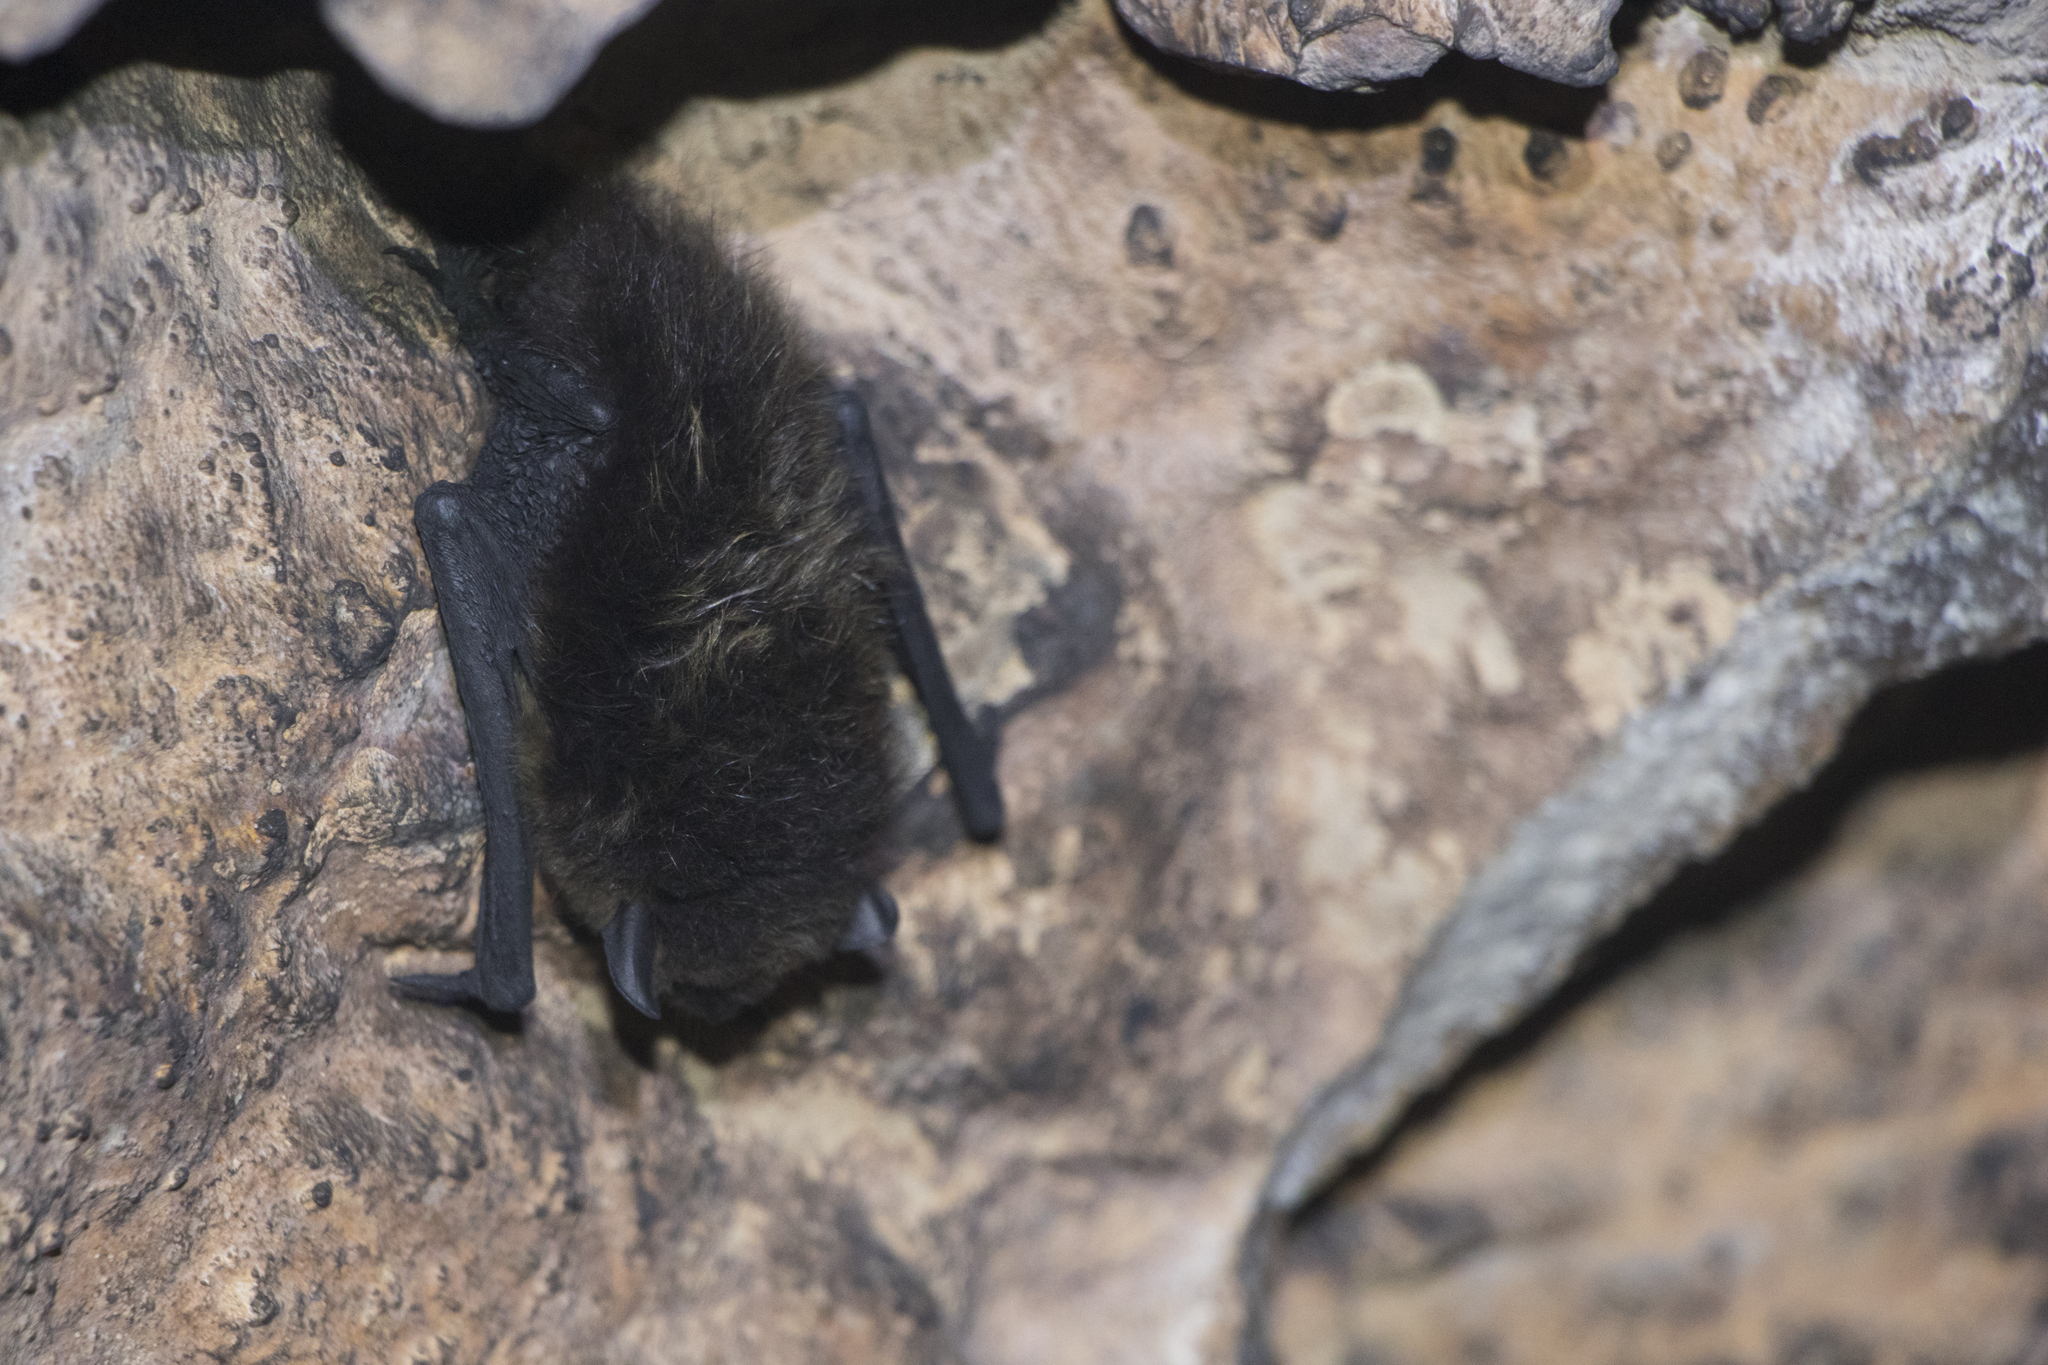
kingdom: Animalia
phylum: Chordata
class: Mammalia
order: Chiroptera
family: Vespertilionidae
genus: Eptesicus
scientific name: Eptesicus nilssonii
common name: Northern bat
